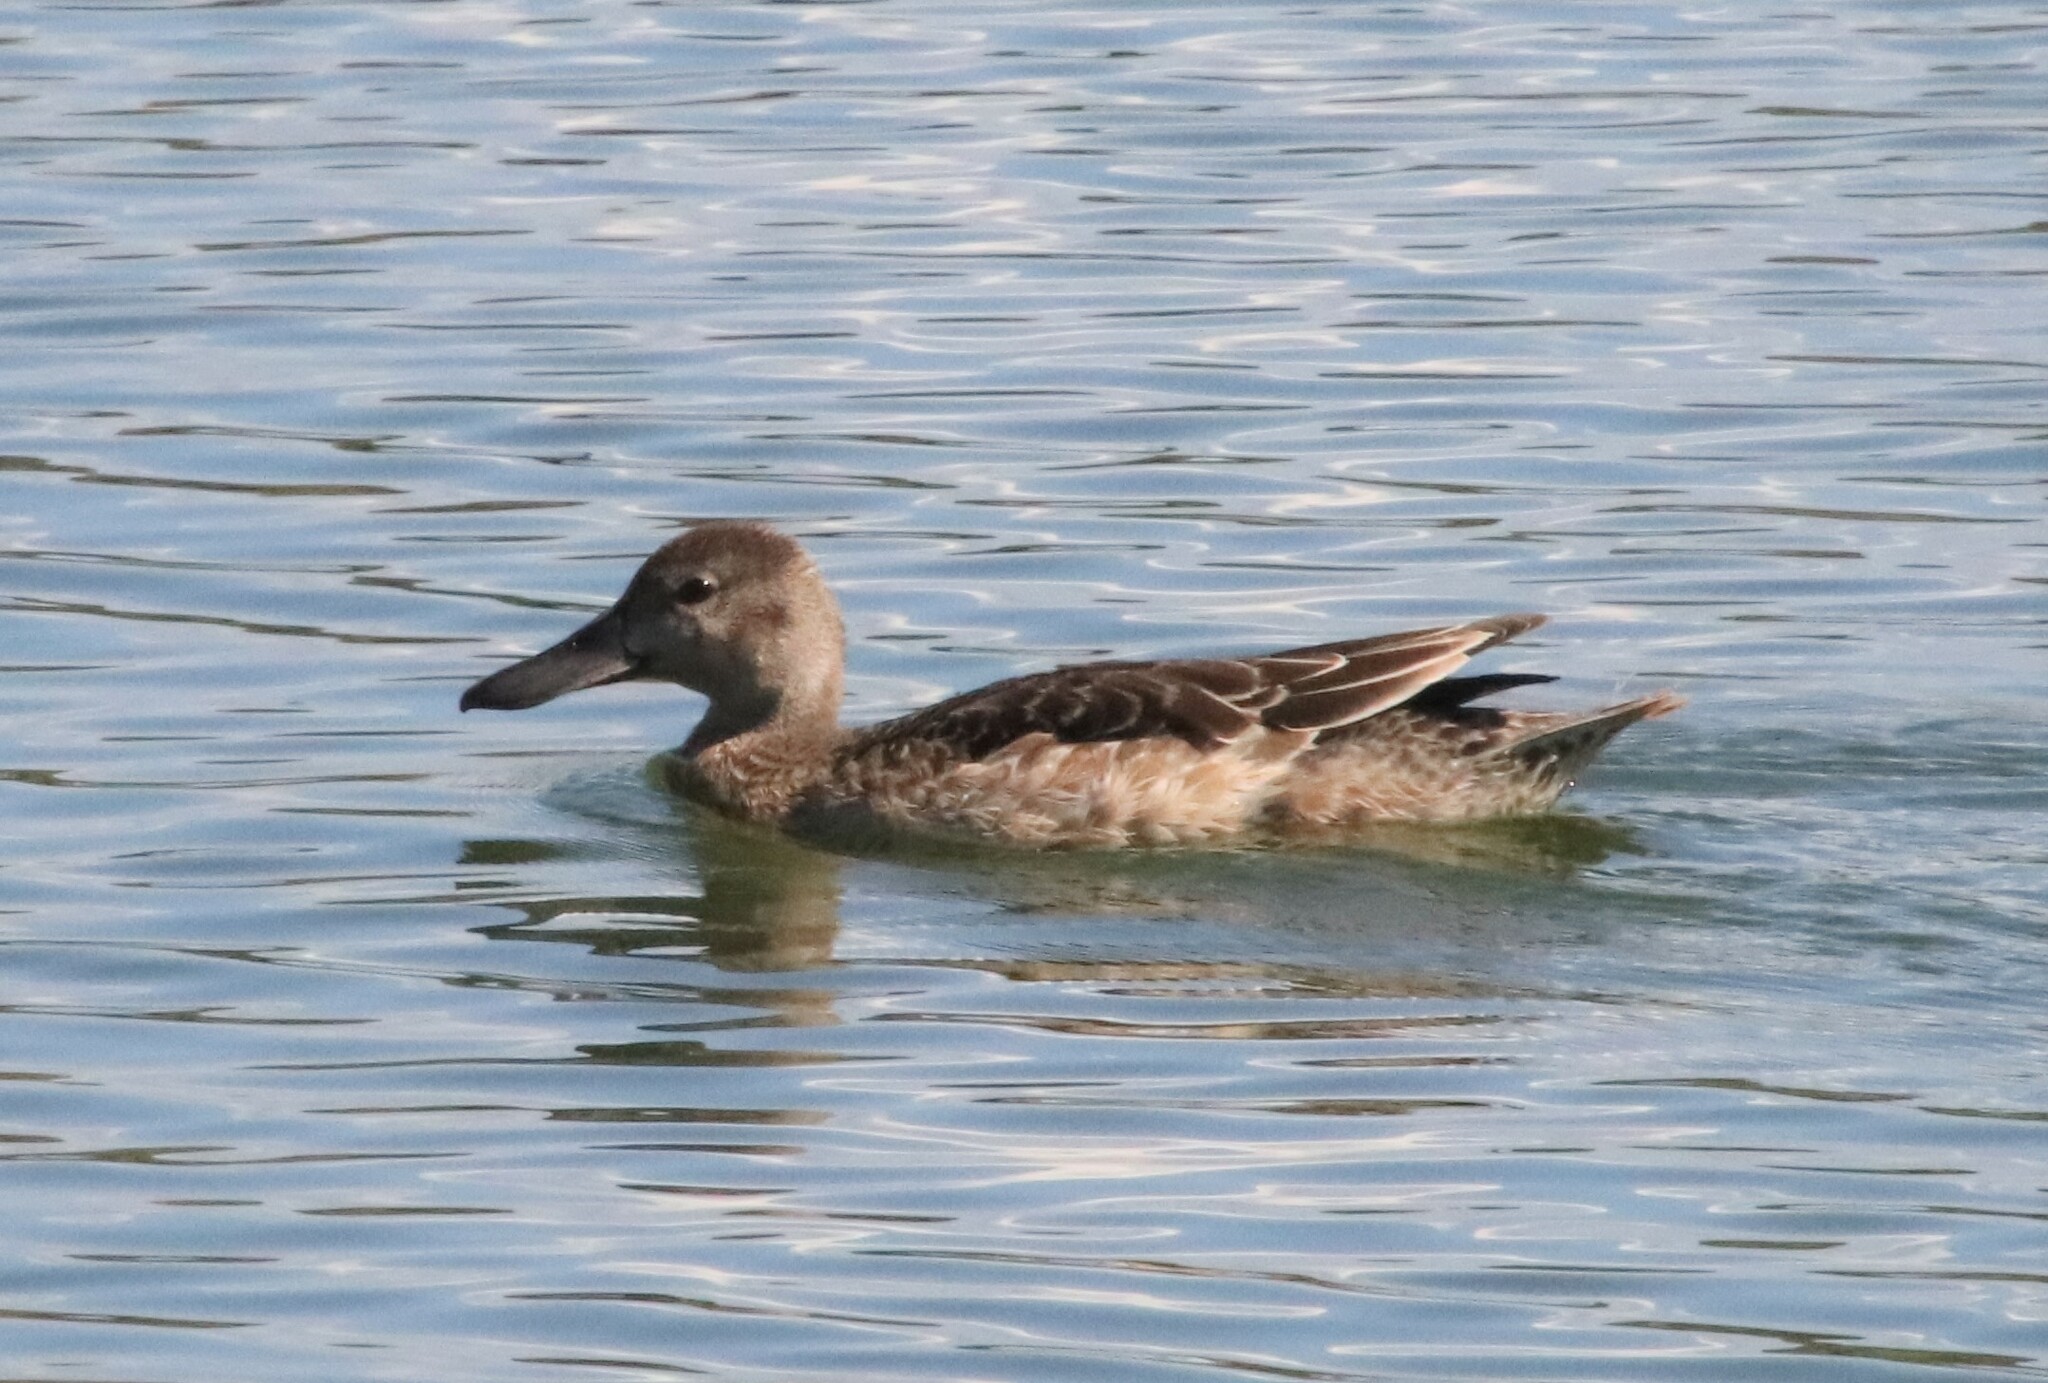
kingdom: Animalia
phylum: Chordata
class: Aves
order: Anseriformes
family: Anatidae
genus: Spatula
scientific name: Spatula cyanoptera
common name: Cinnamon teal
